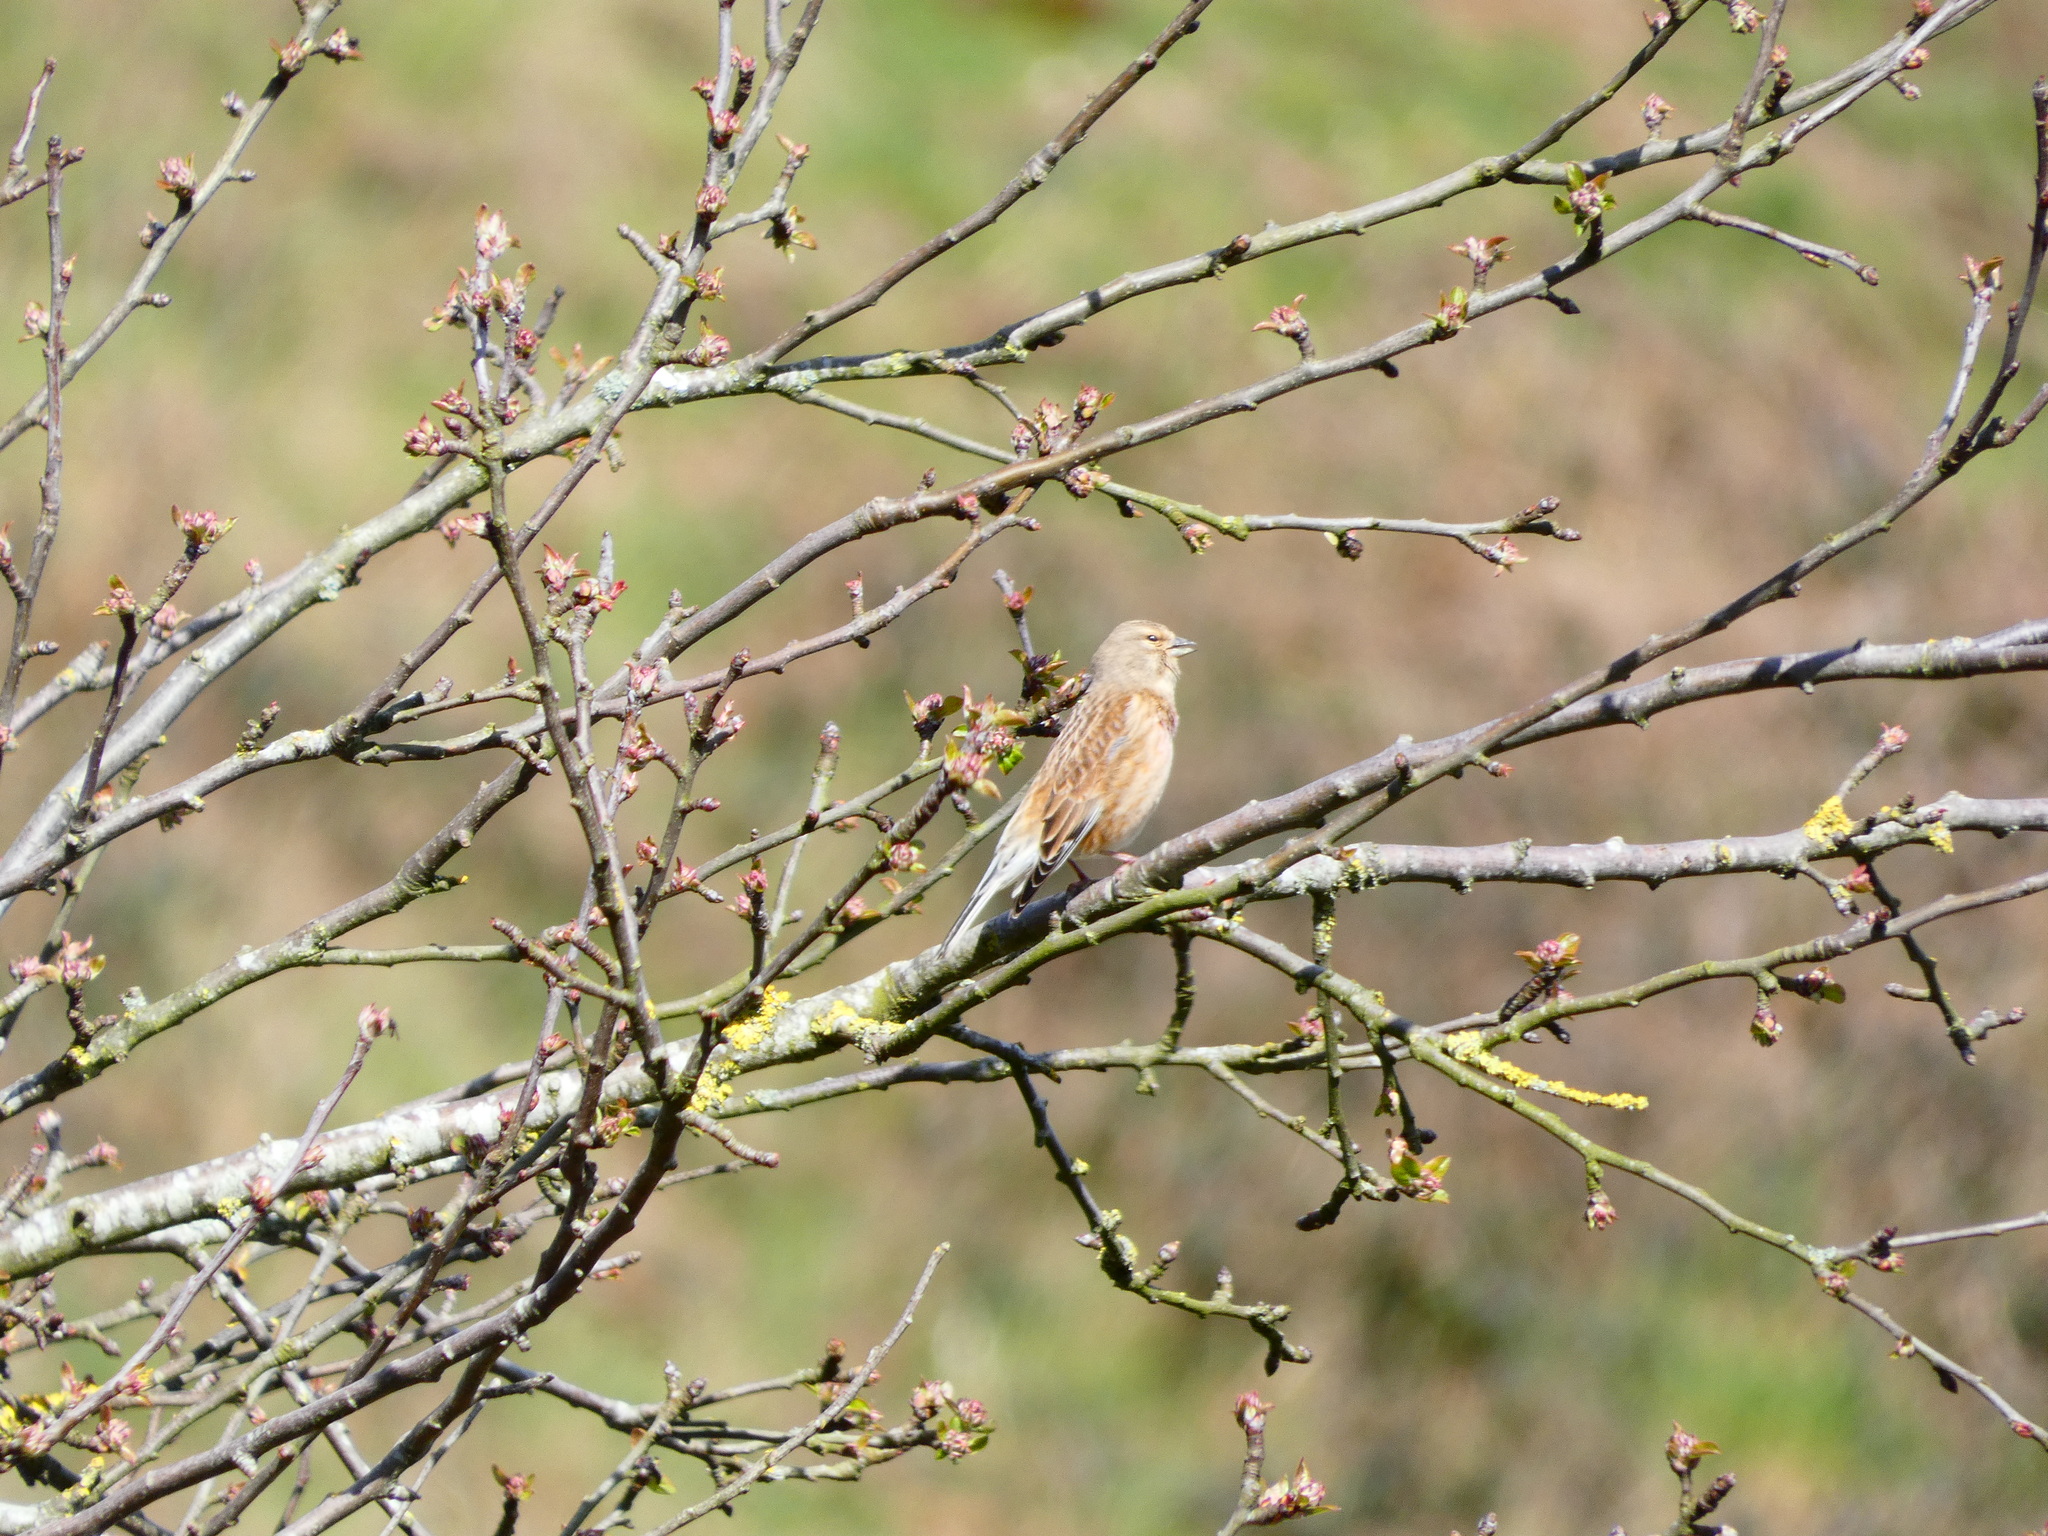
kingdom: Animalia
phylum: Chordata
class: Aves
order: Passeriformes
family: Fringillidae
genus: Linaria
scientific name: Linaria cannabina
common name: Common linnet
